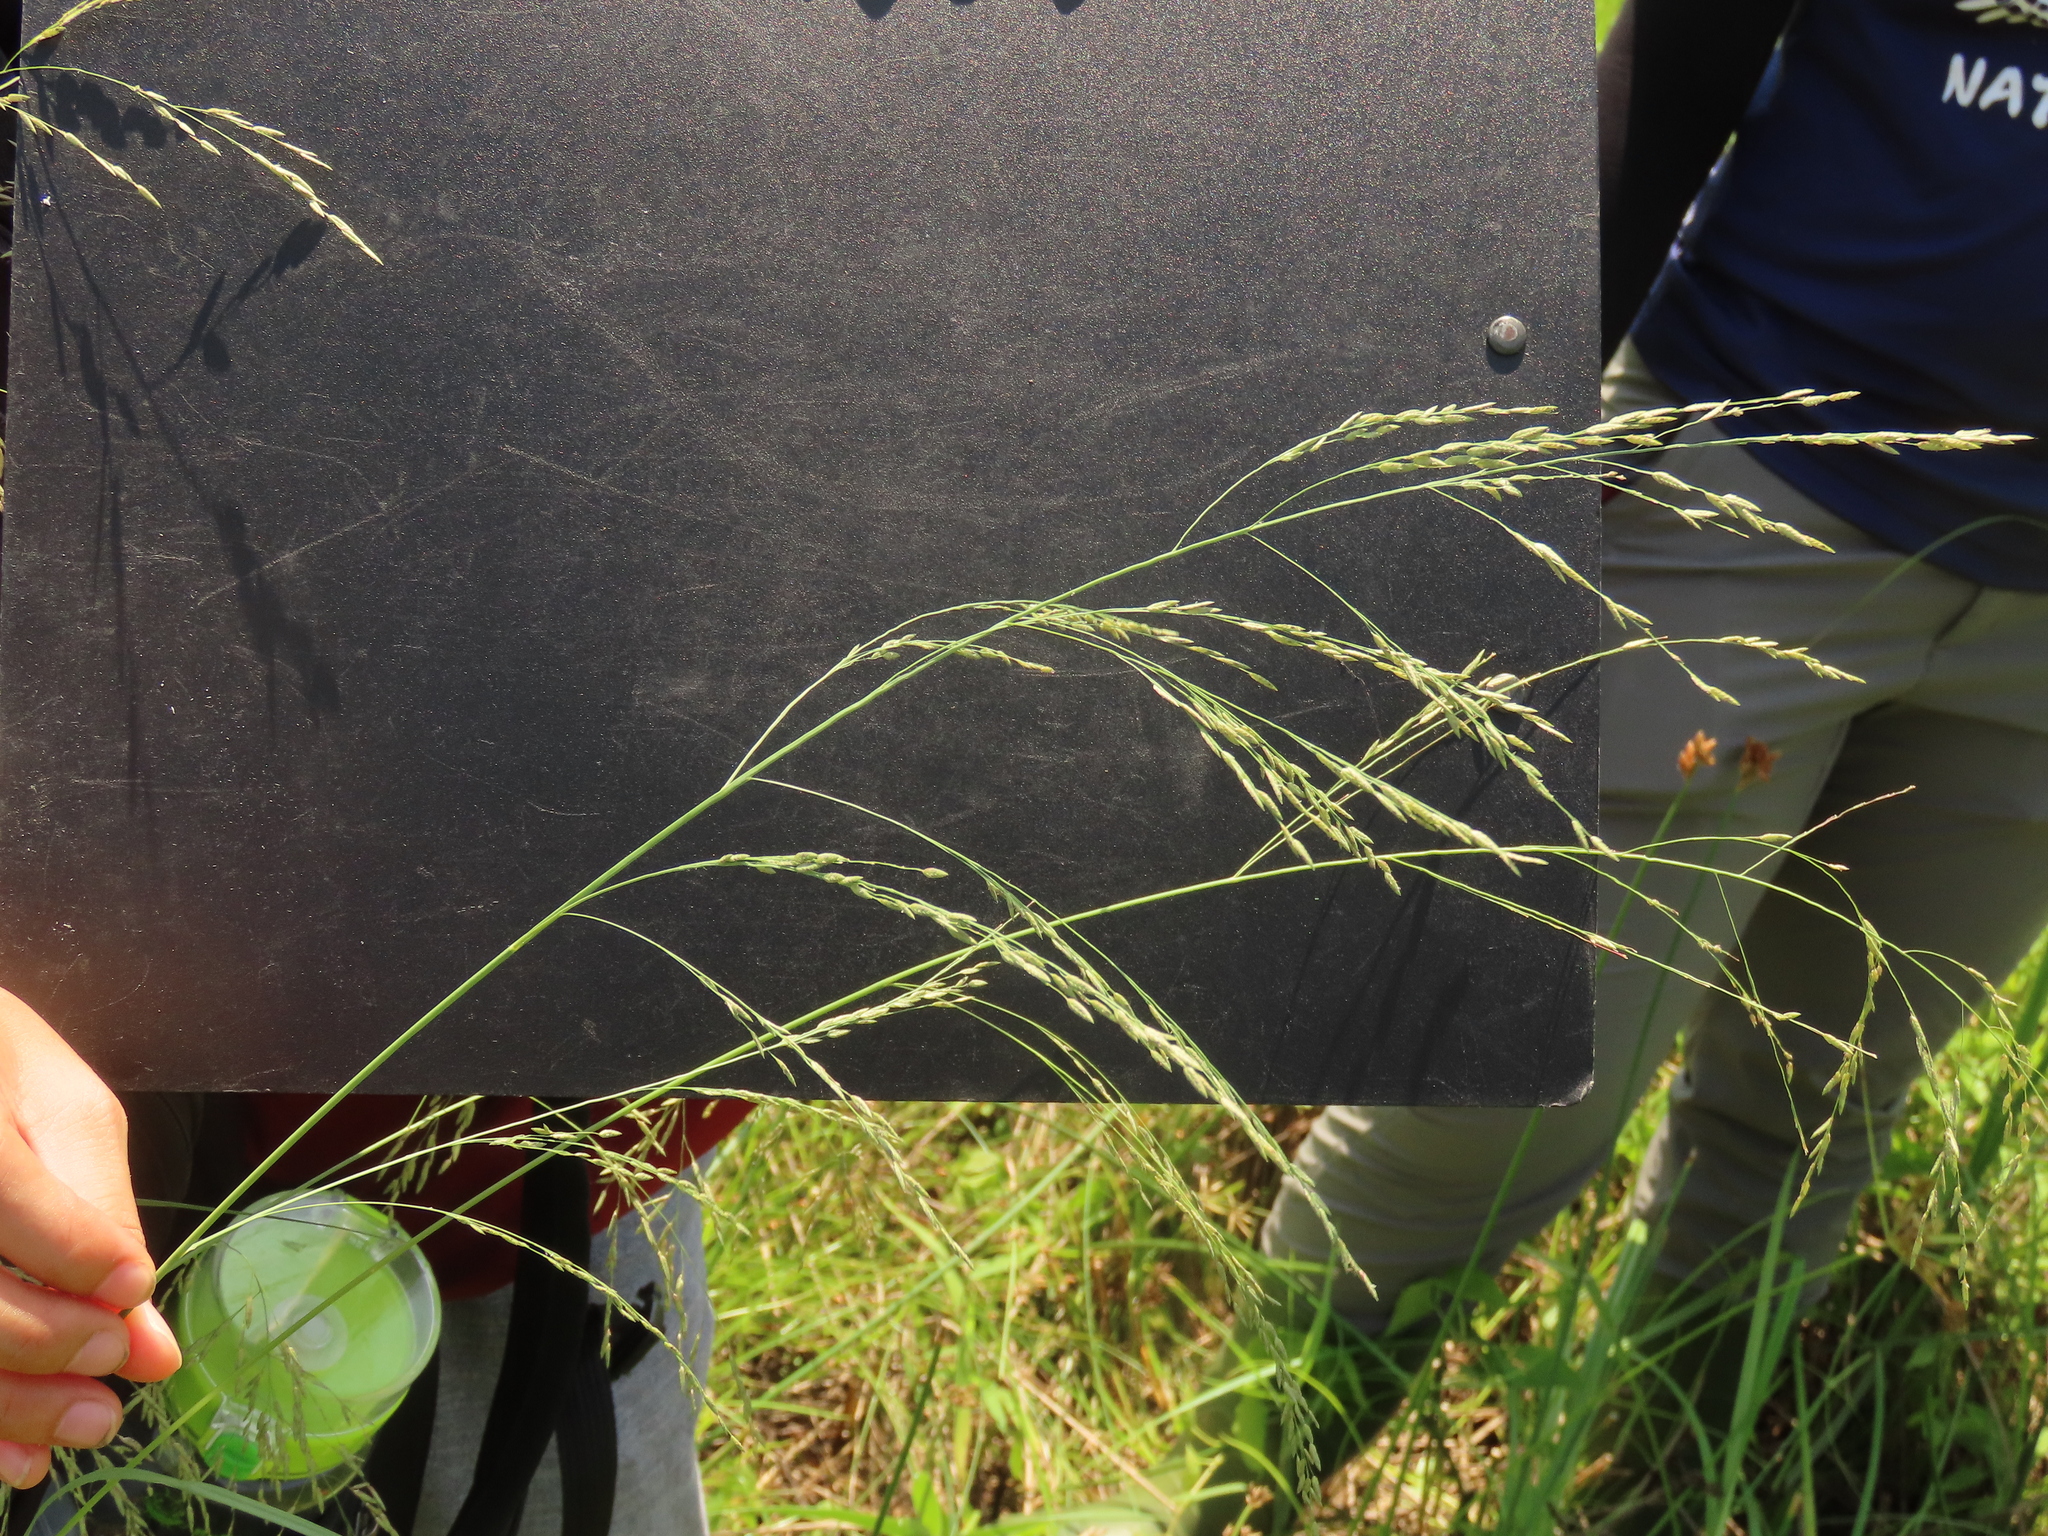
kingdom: Plantae
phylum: Tracheophyta
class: Liliopsida
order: Poales
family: Poaceae
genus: Eragrostis
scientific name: Eragrostis atrovirens
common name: Thalia lovegrass
